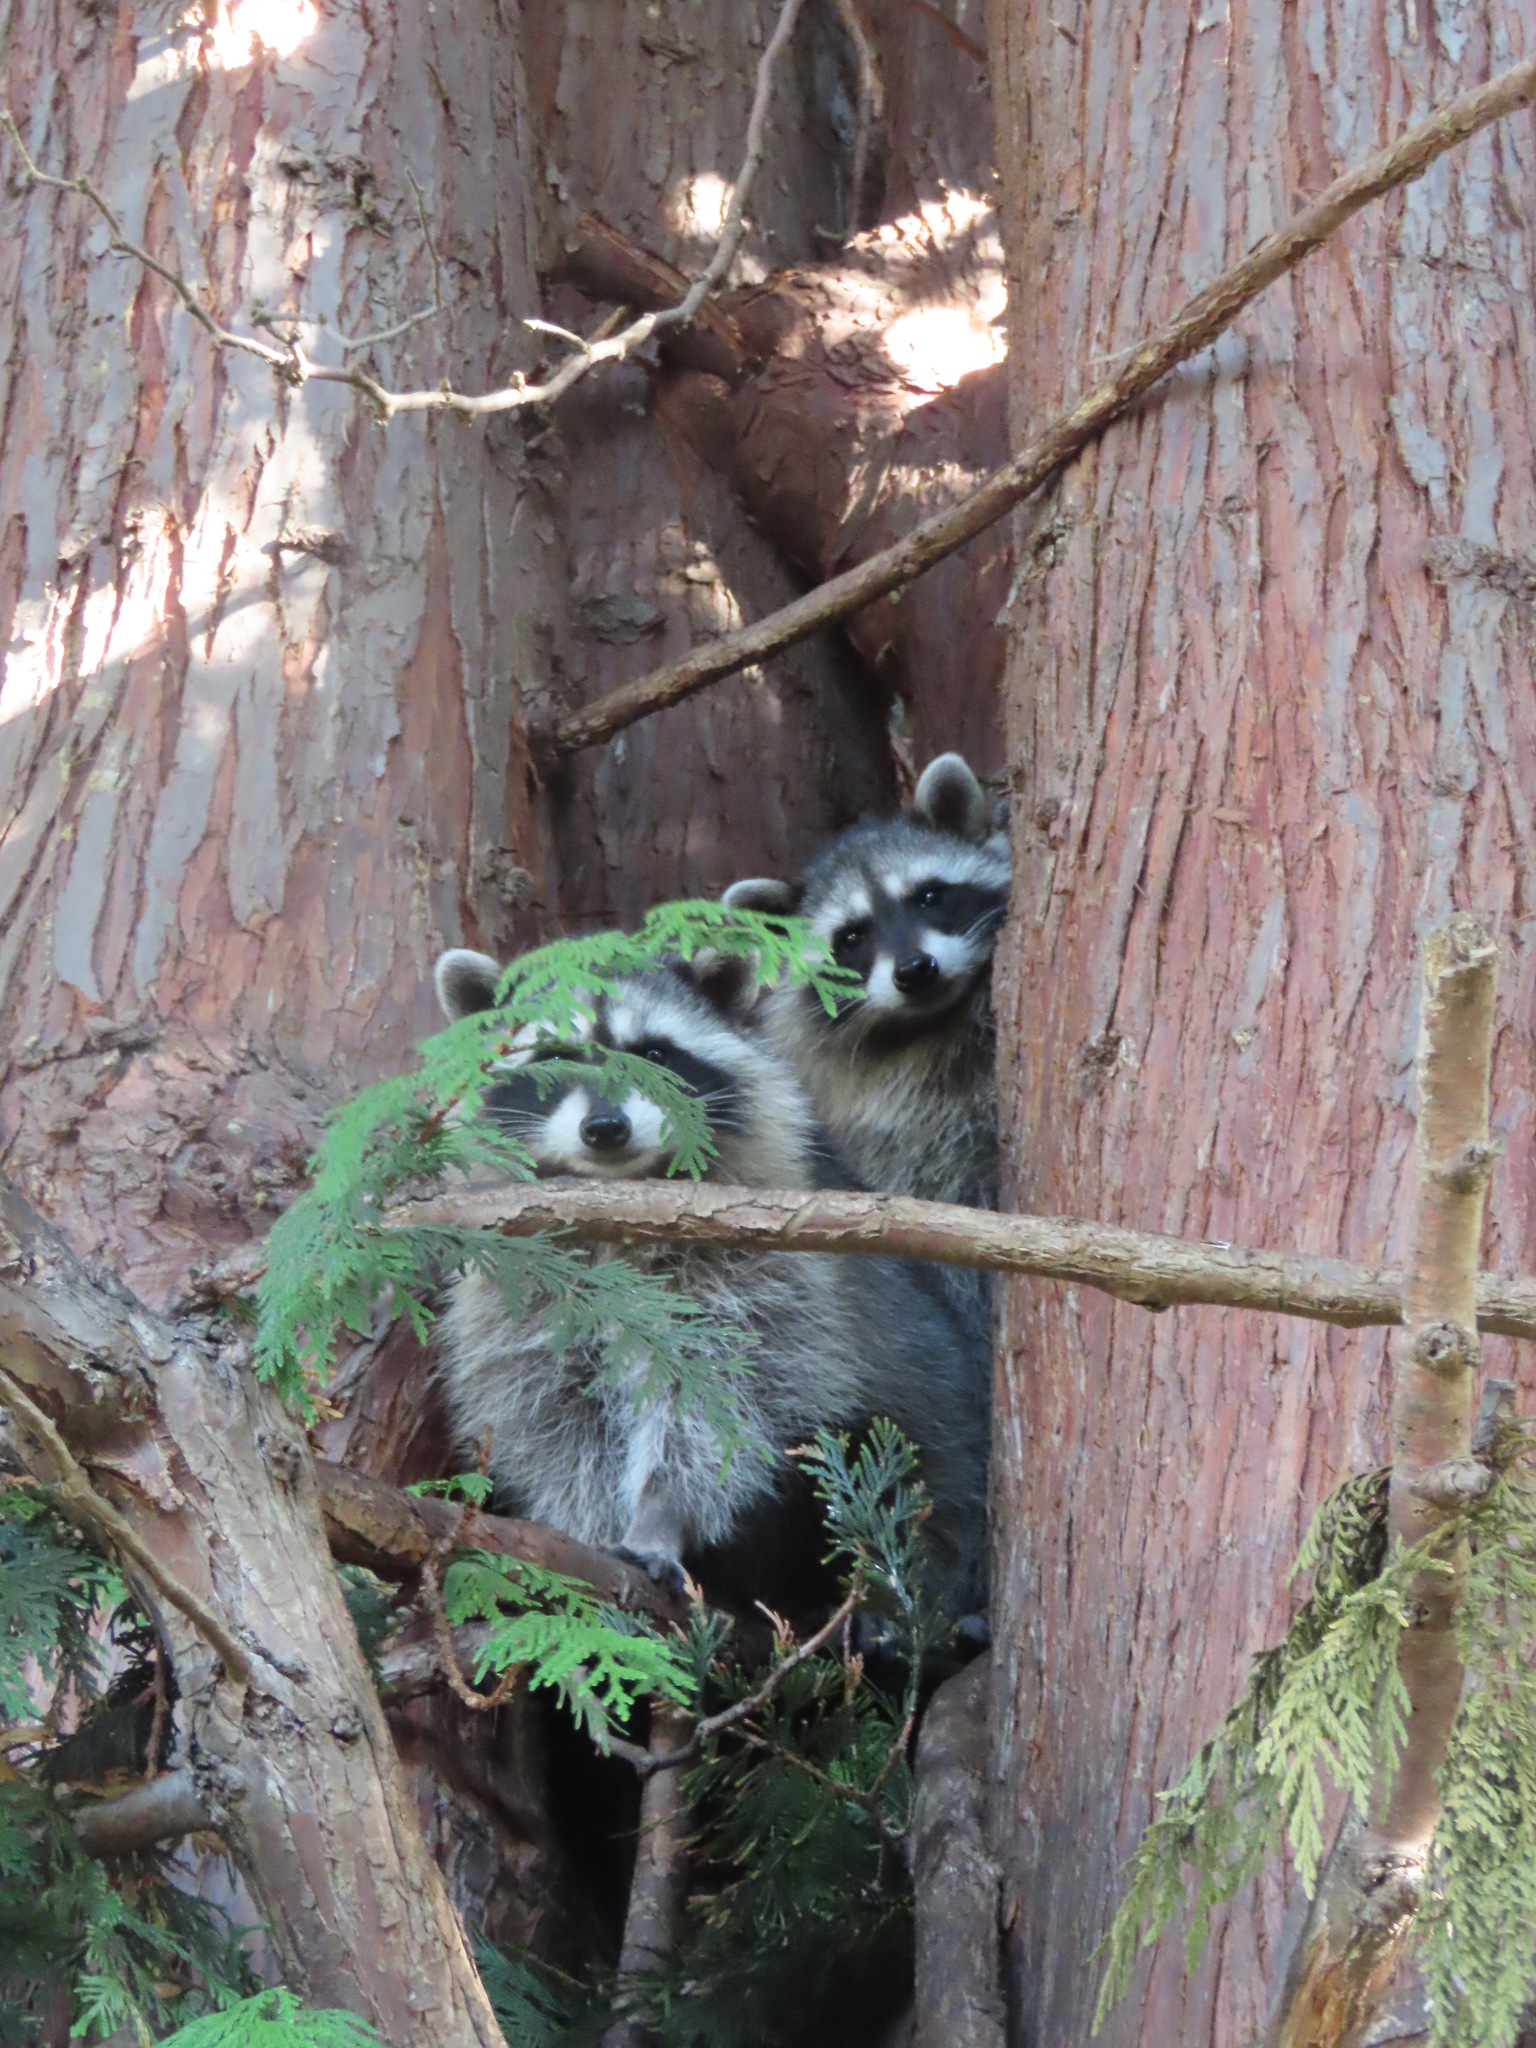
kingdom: Animalia
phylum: Chordata
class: Mammalia
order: Carnivora
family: Procyonidae
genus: Procyon
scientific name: Procyon lotor
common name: Raccoon
